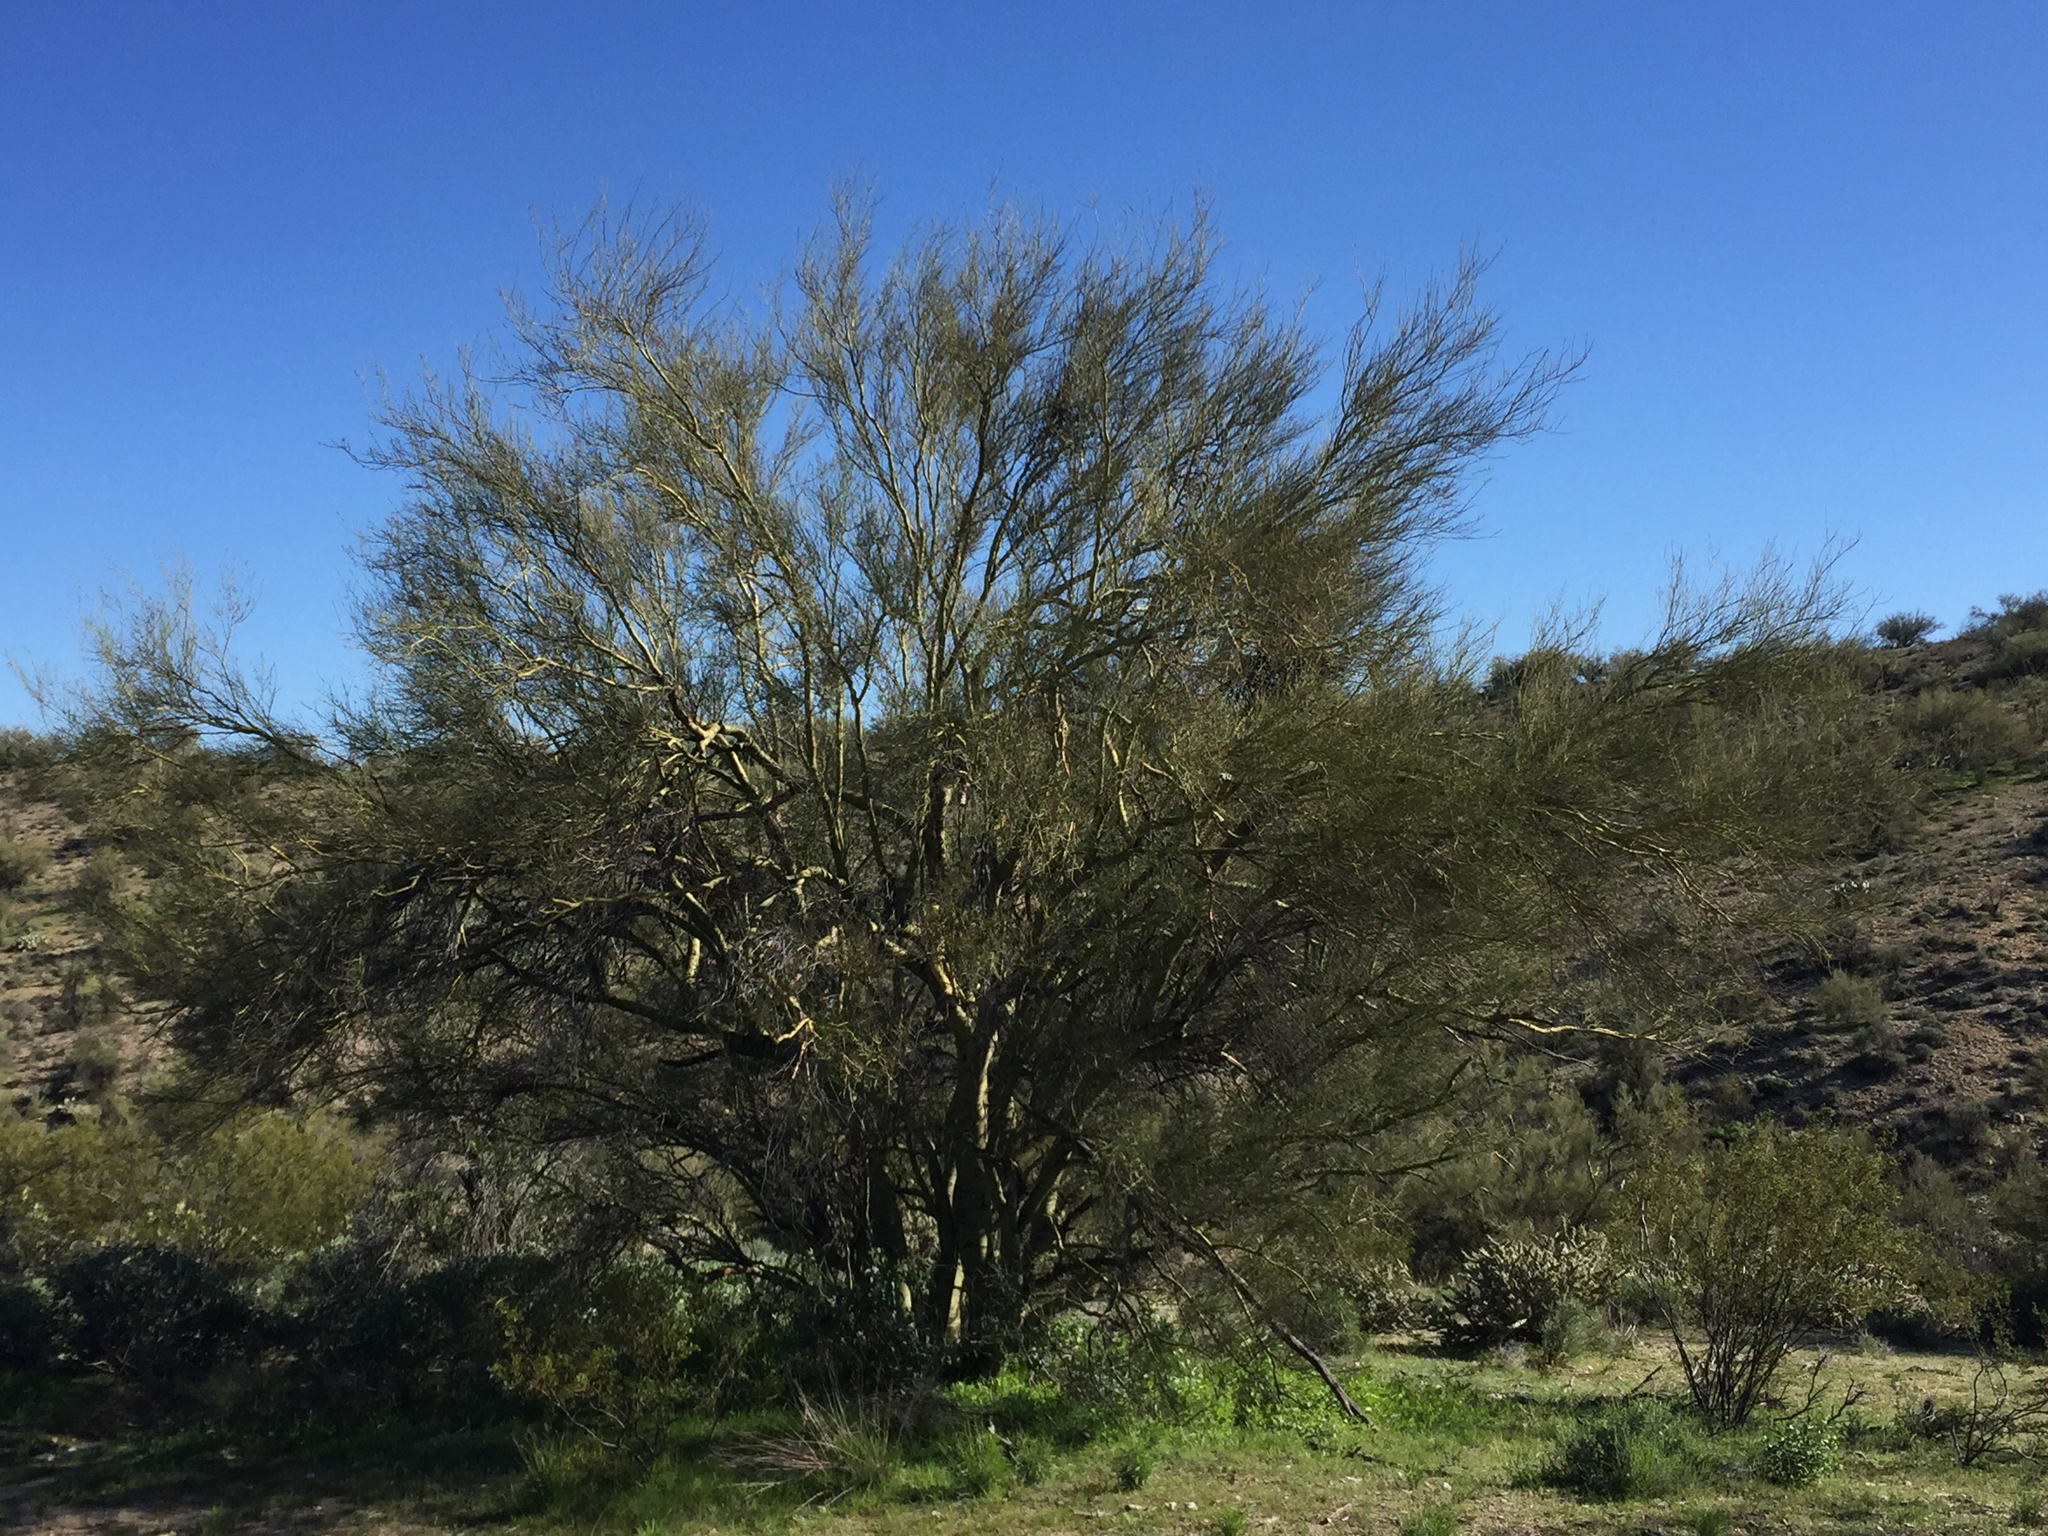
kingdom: Plantae
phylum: Tracheophyta
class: Magnoliopsida
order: Fabales
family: Fabaceae
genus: Parkinsonia
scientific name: Parkinsonia microphylla
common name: Yellow paloverde
